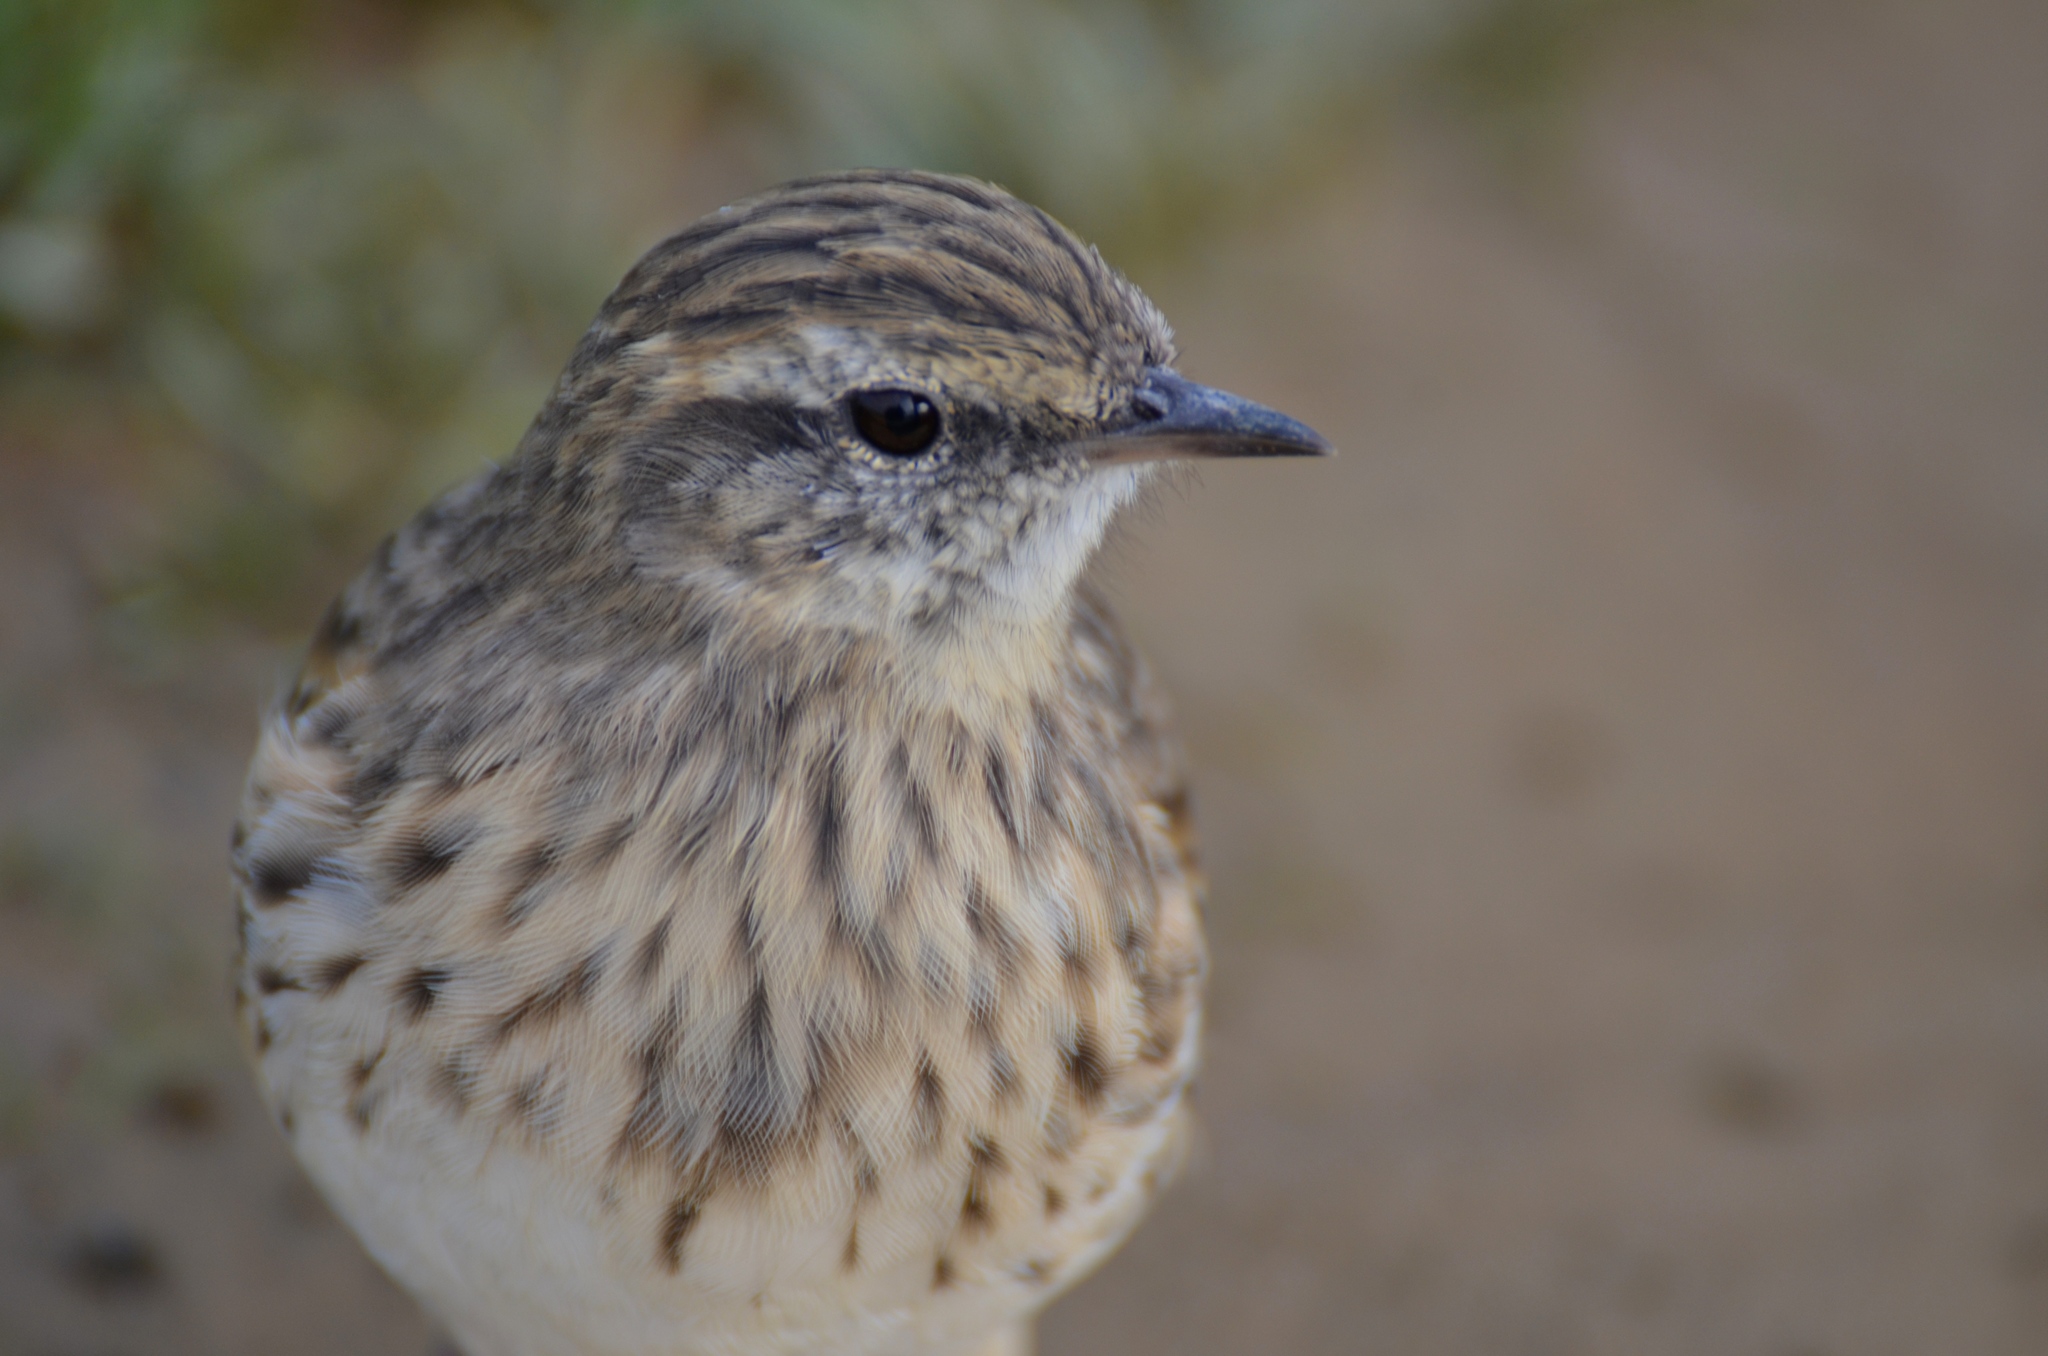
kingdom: Animalia
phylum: Chordata
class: Aves
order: Passeriformes
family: Motacillidae
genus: Anthus
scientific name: Anthus novaeseelandiae
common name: New zealand pipit
